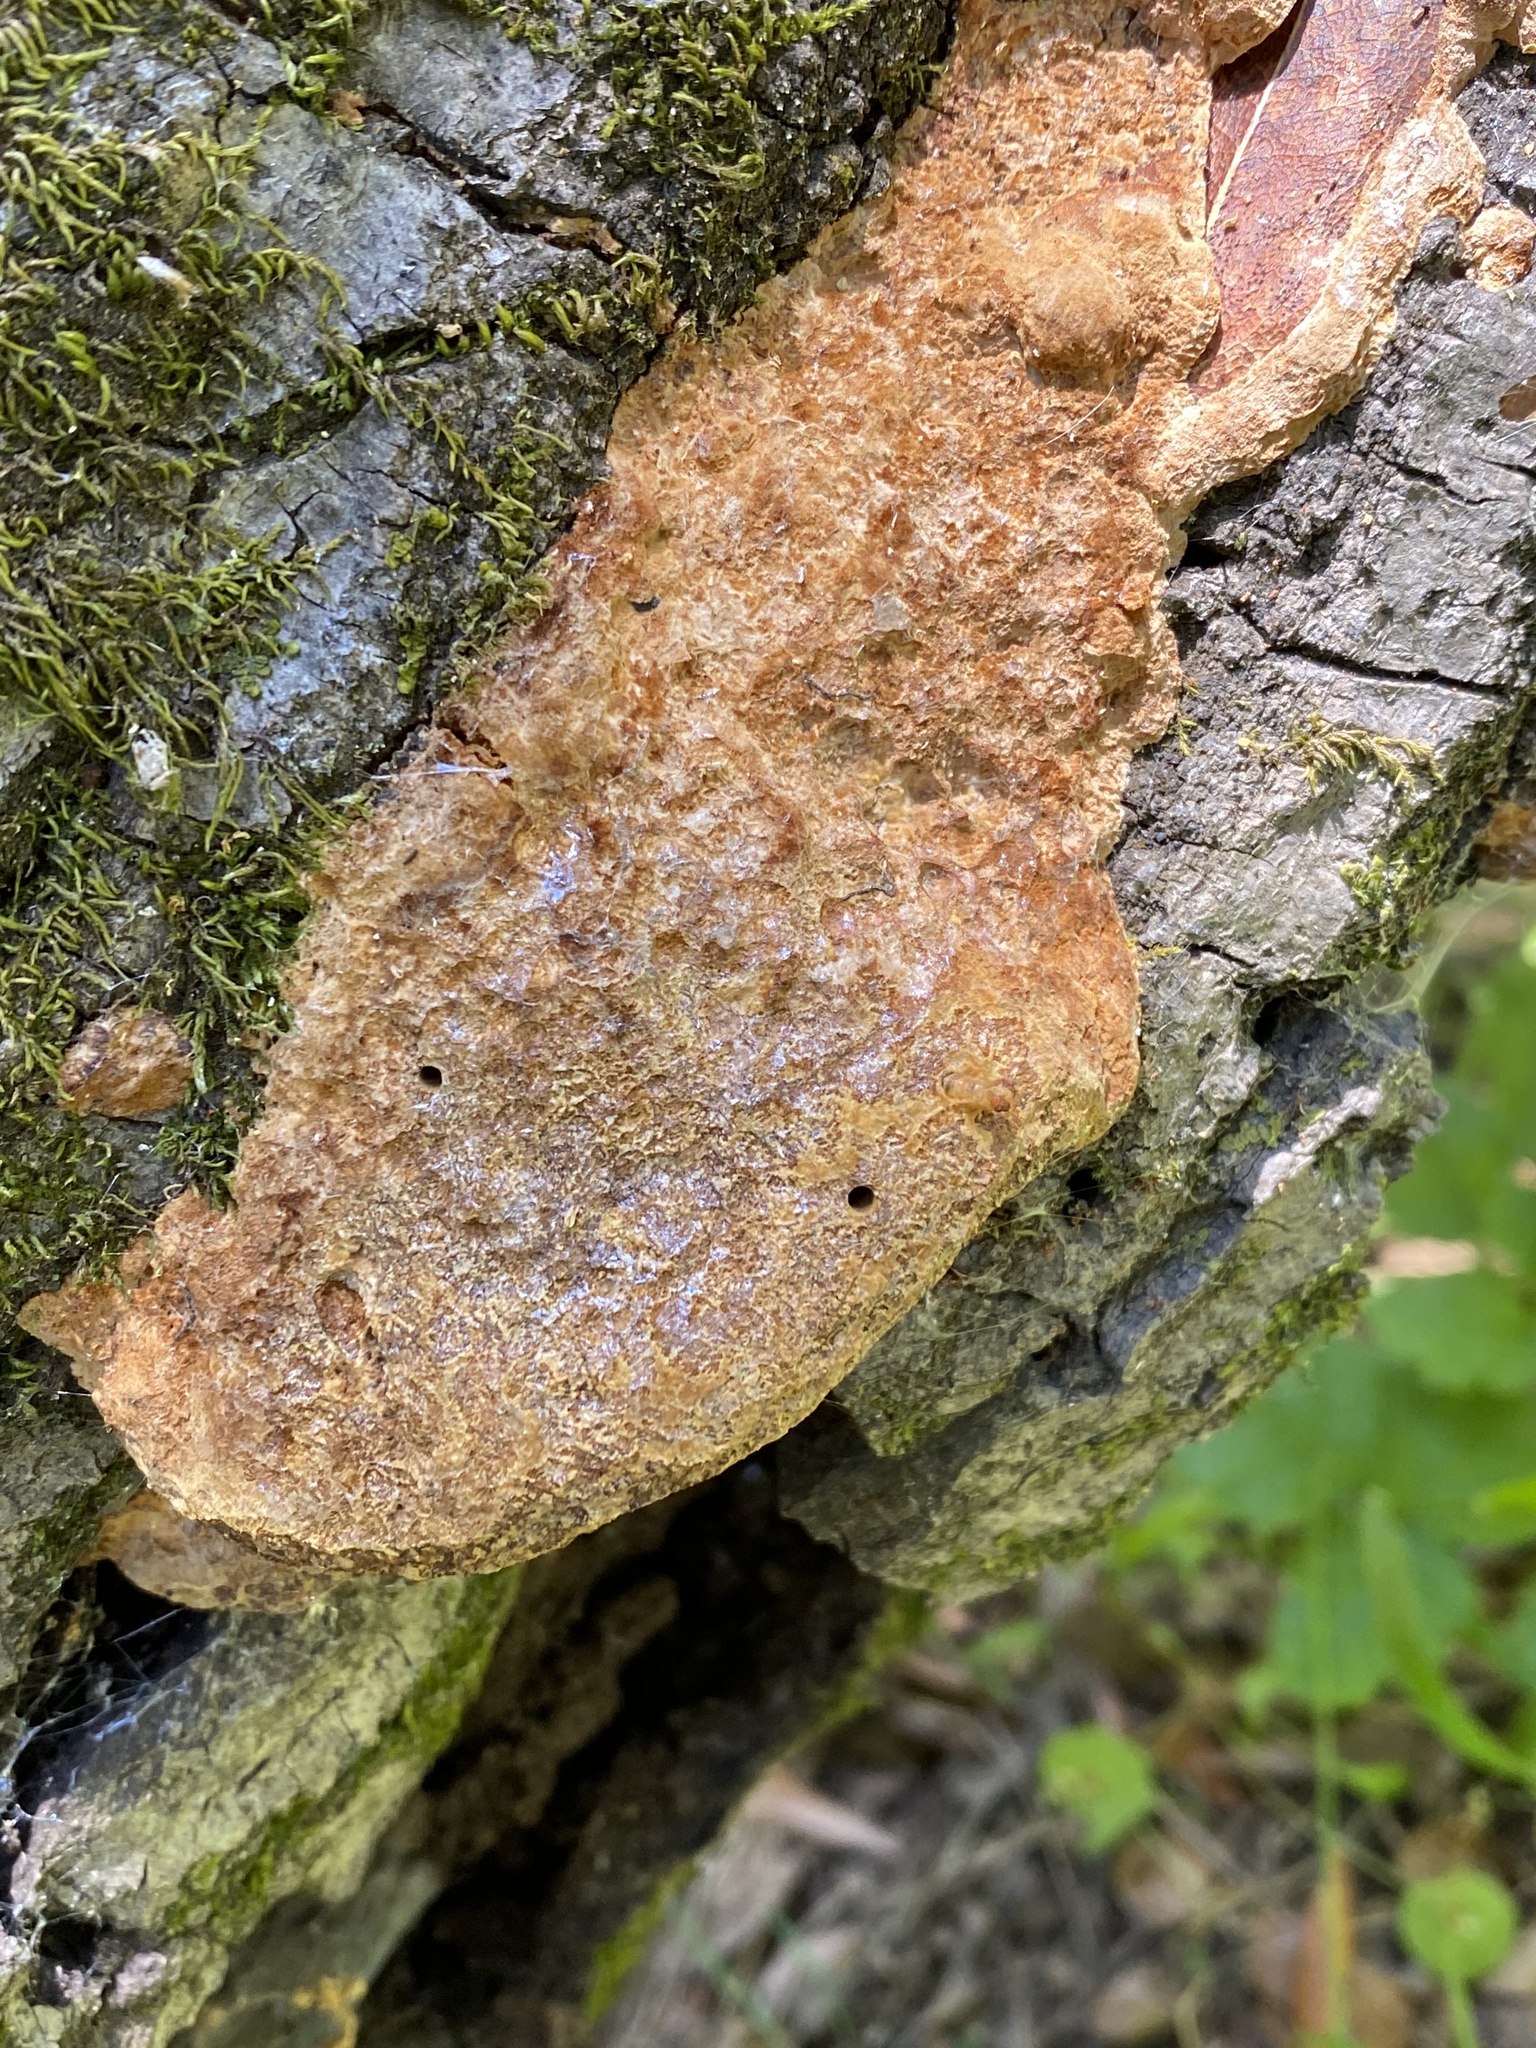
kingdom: Fungi
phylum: Basidiomycota
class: Agaricomycetes
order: Hymenochaetales
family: Hymenochaetaceae
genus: Phellinus
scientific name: Phellinus gilvus
